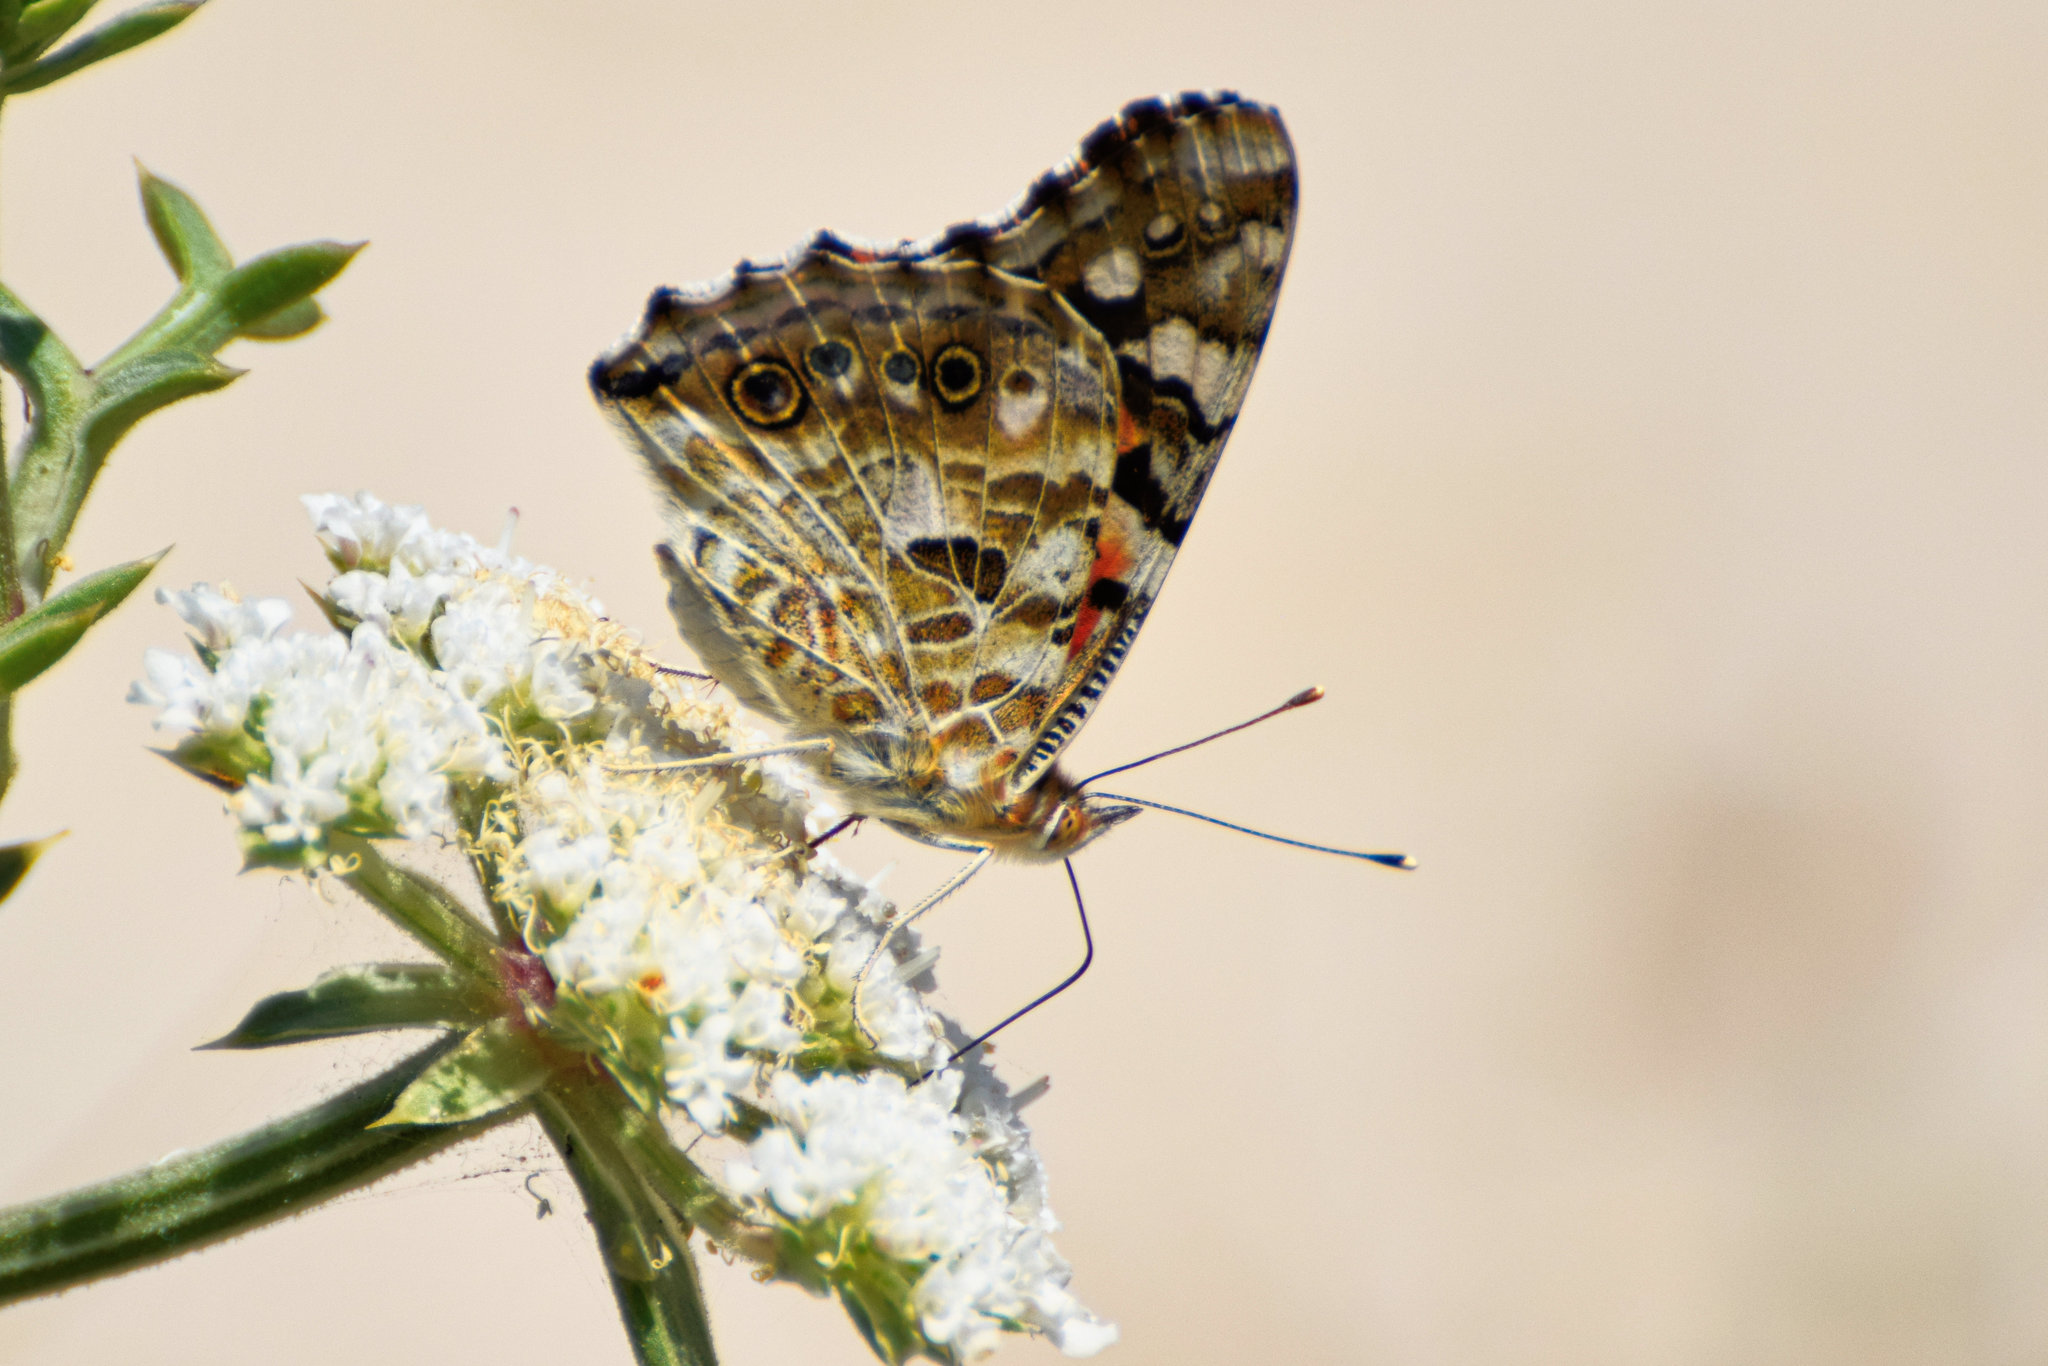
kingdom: Animalia
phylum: Arthropoda
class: Insecta
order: Lepidoptera
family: Nymphalidae
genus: Vanessa
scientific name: Vanessa cardui
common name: Painted lady
